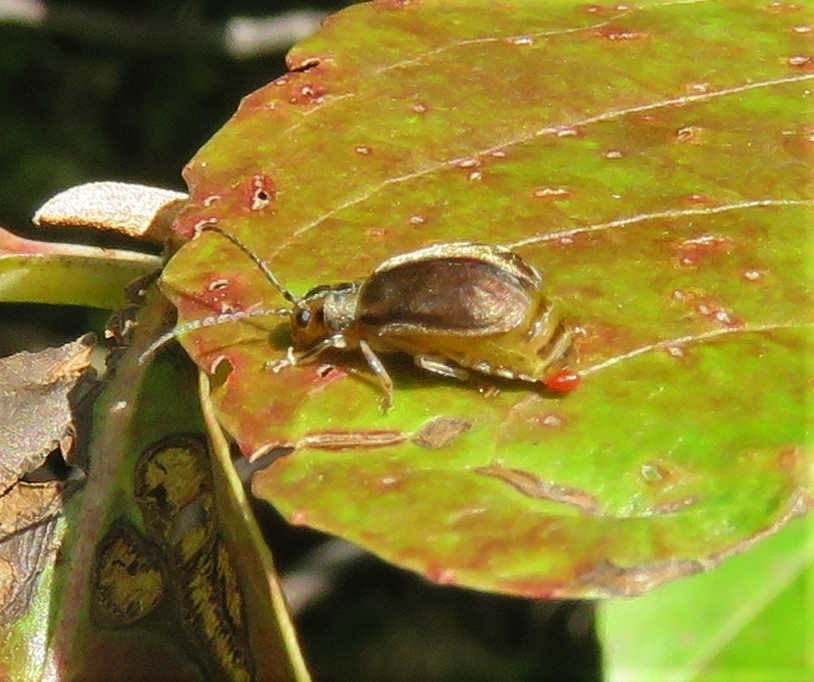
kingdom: Animalia
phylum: Arthropoda
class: Insecta
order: Coleoptera
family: Chrysomelidae
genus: Pyrrhalta
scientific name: Pyrrhalta viburni
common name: Guelder-rose leaf beetle
